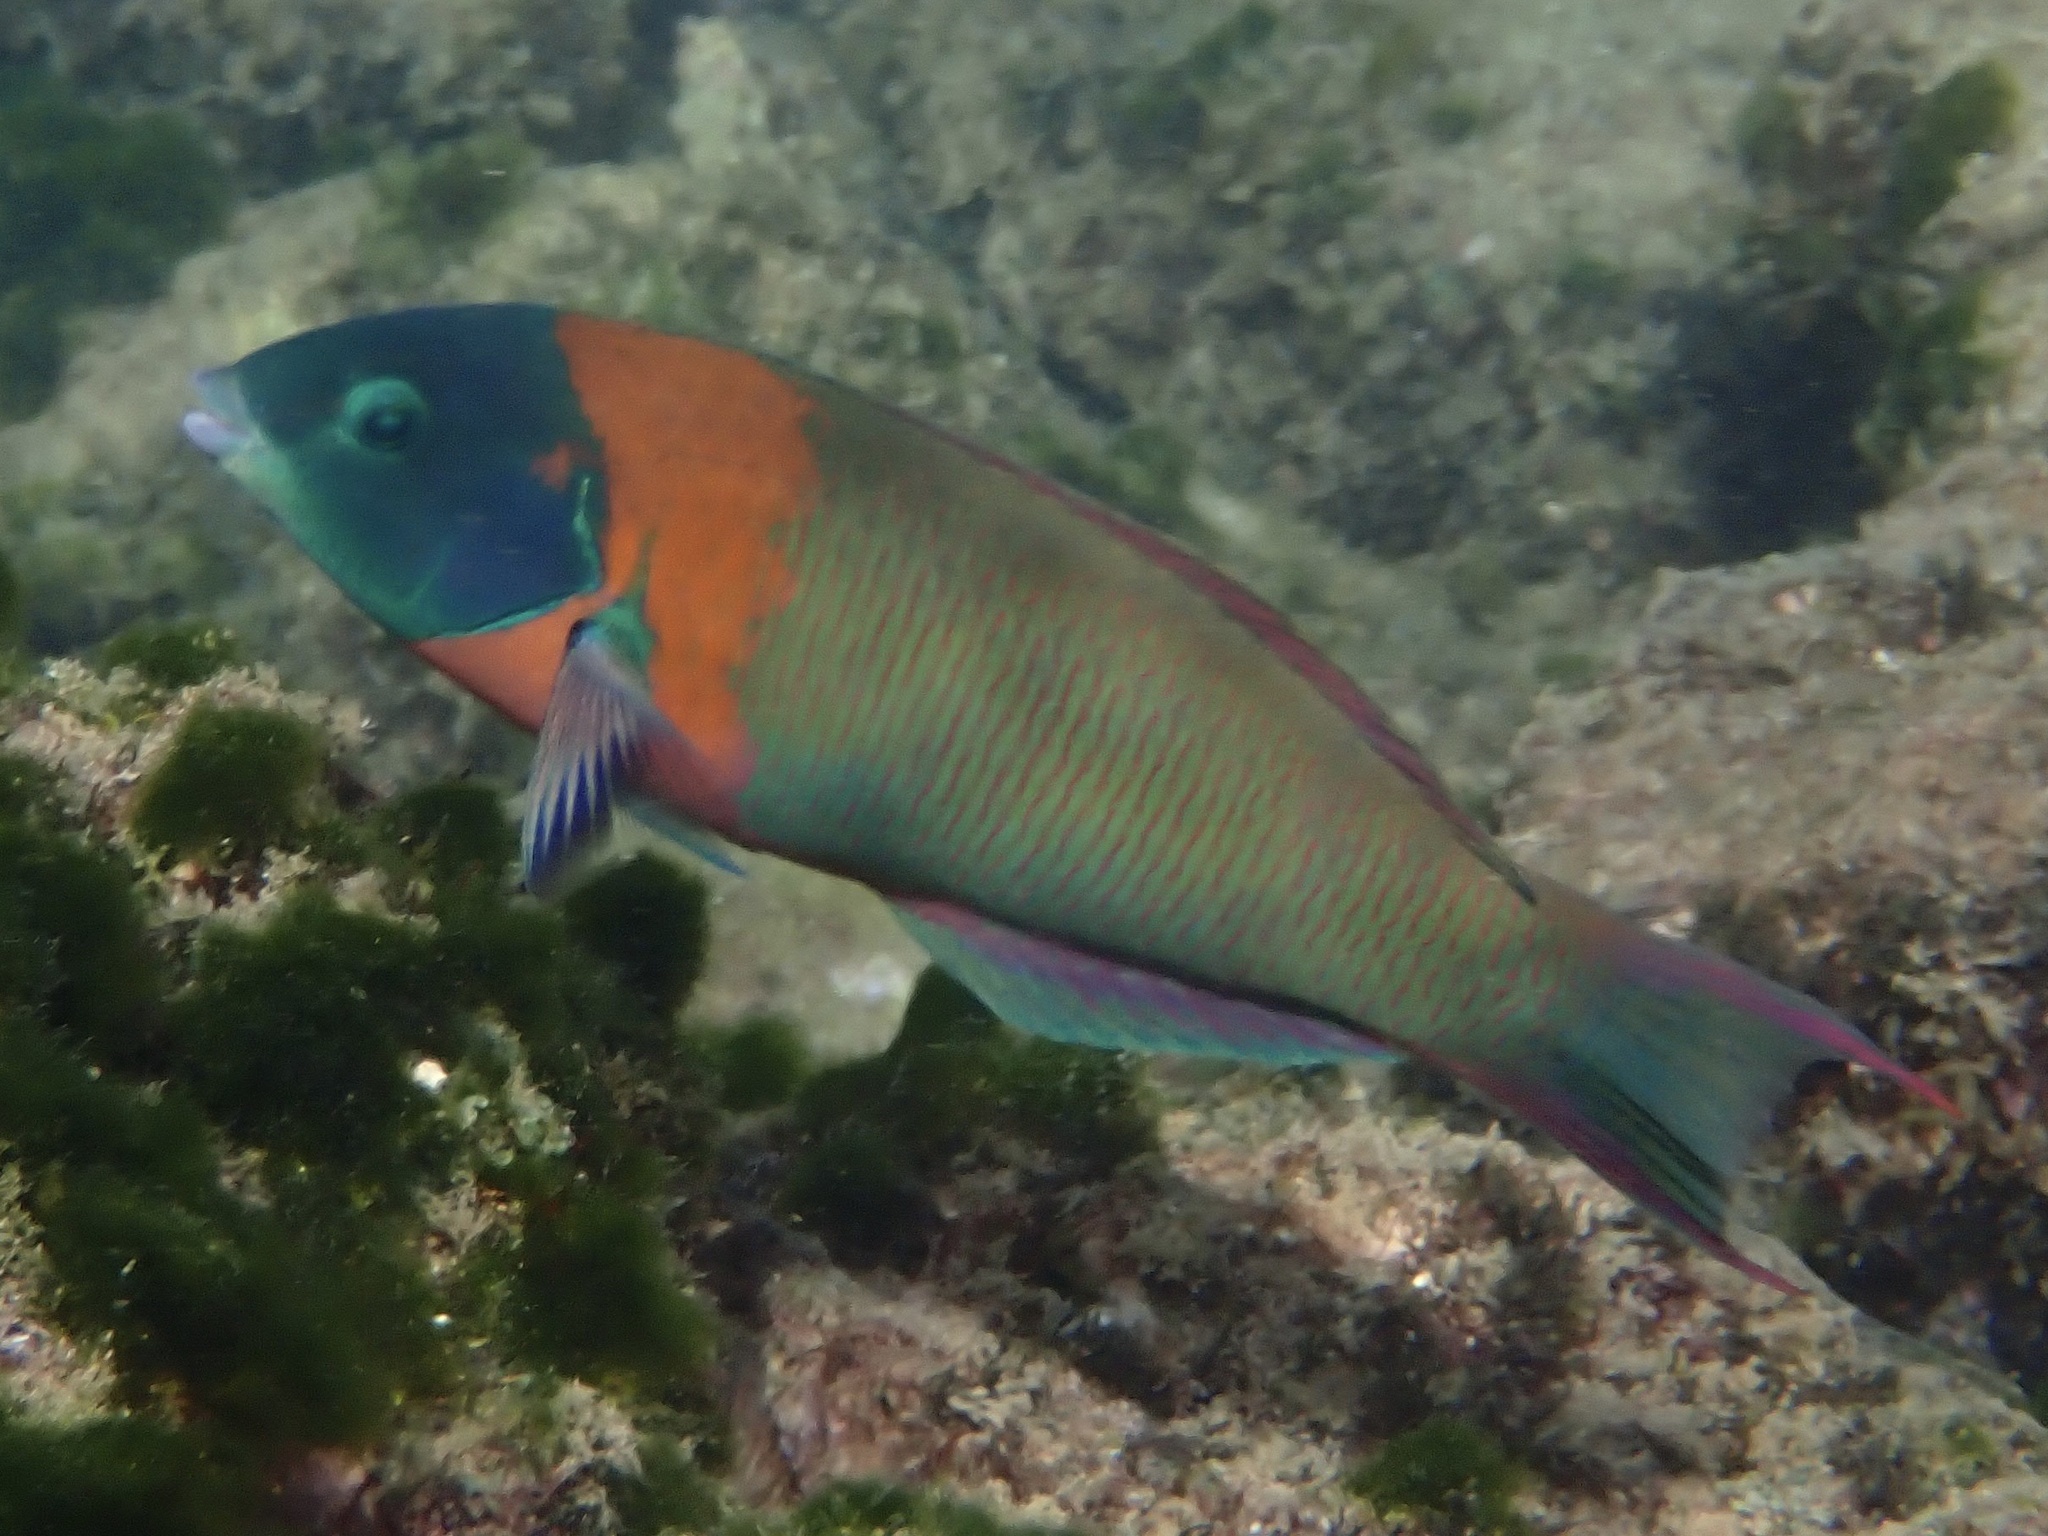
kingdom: Animalia
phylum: Chordata
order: Perciformes
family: Labridae
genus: Thalassoma
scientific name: Thalassoma duperrey
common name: Saddle wrasse
